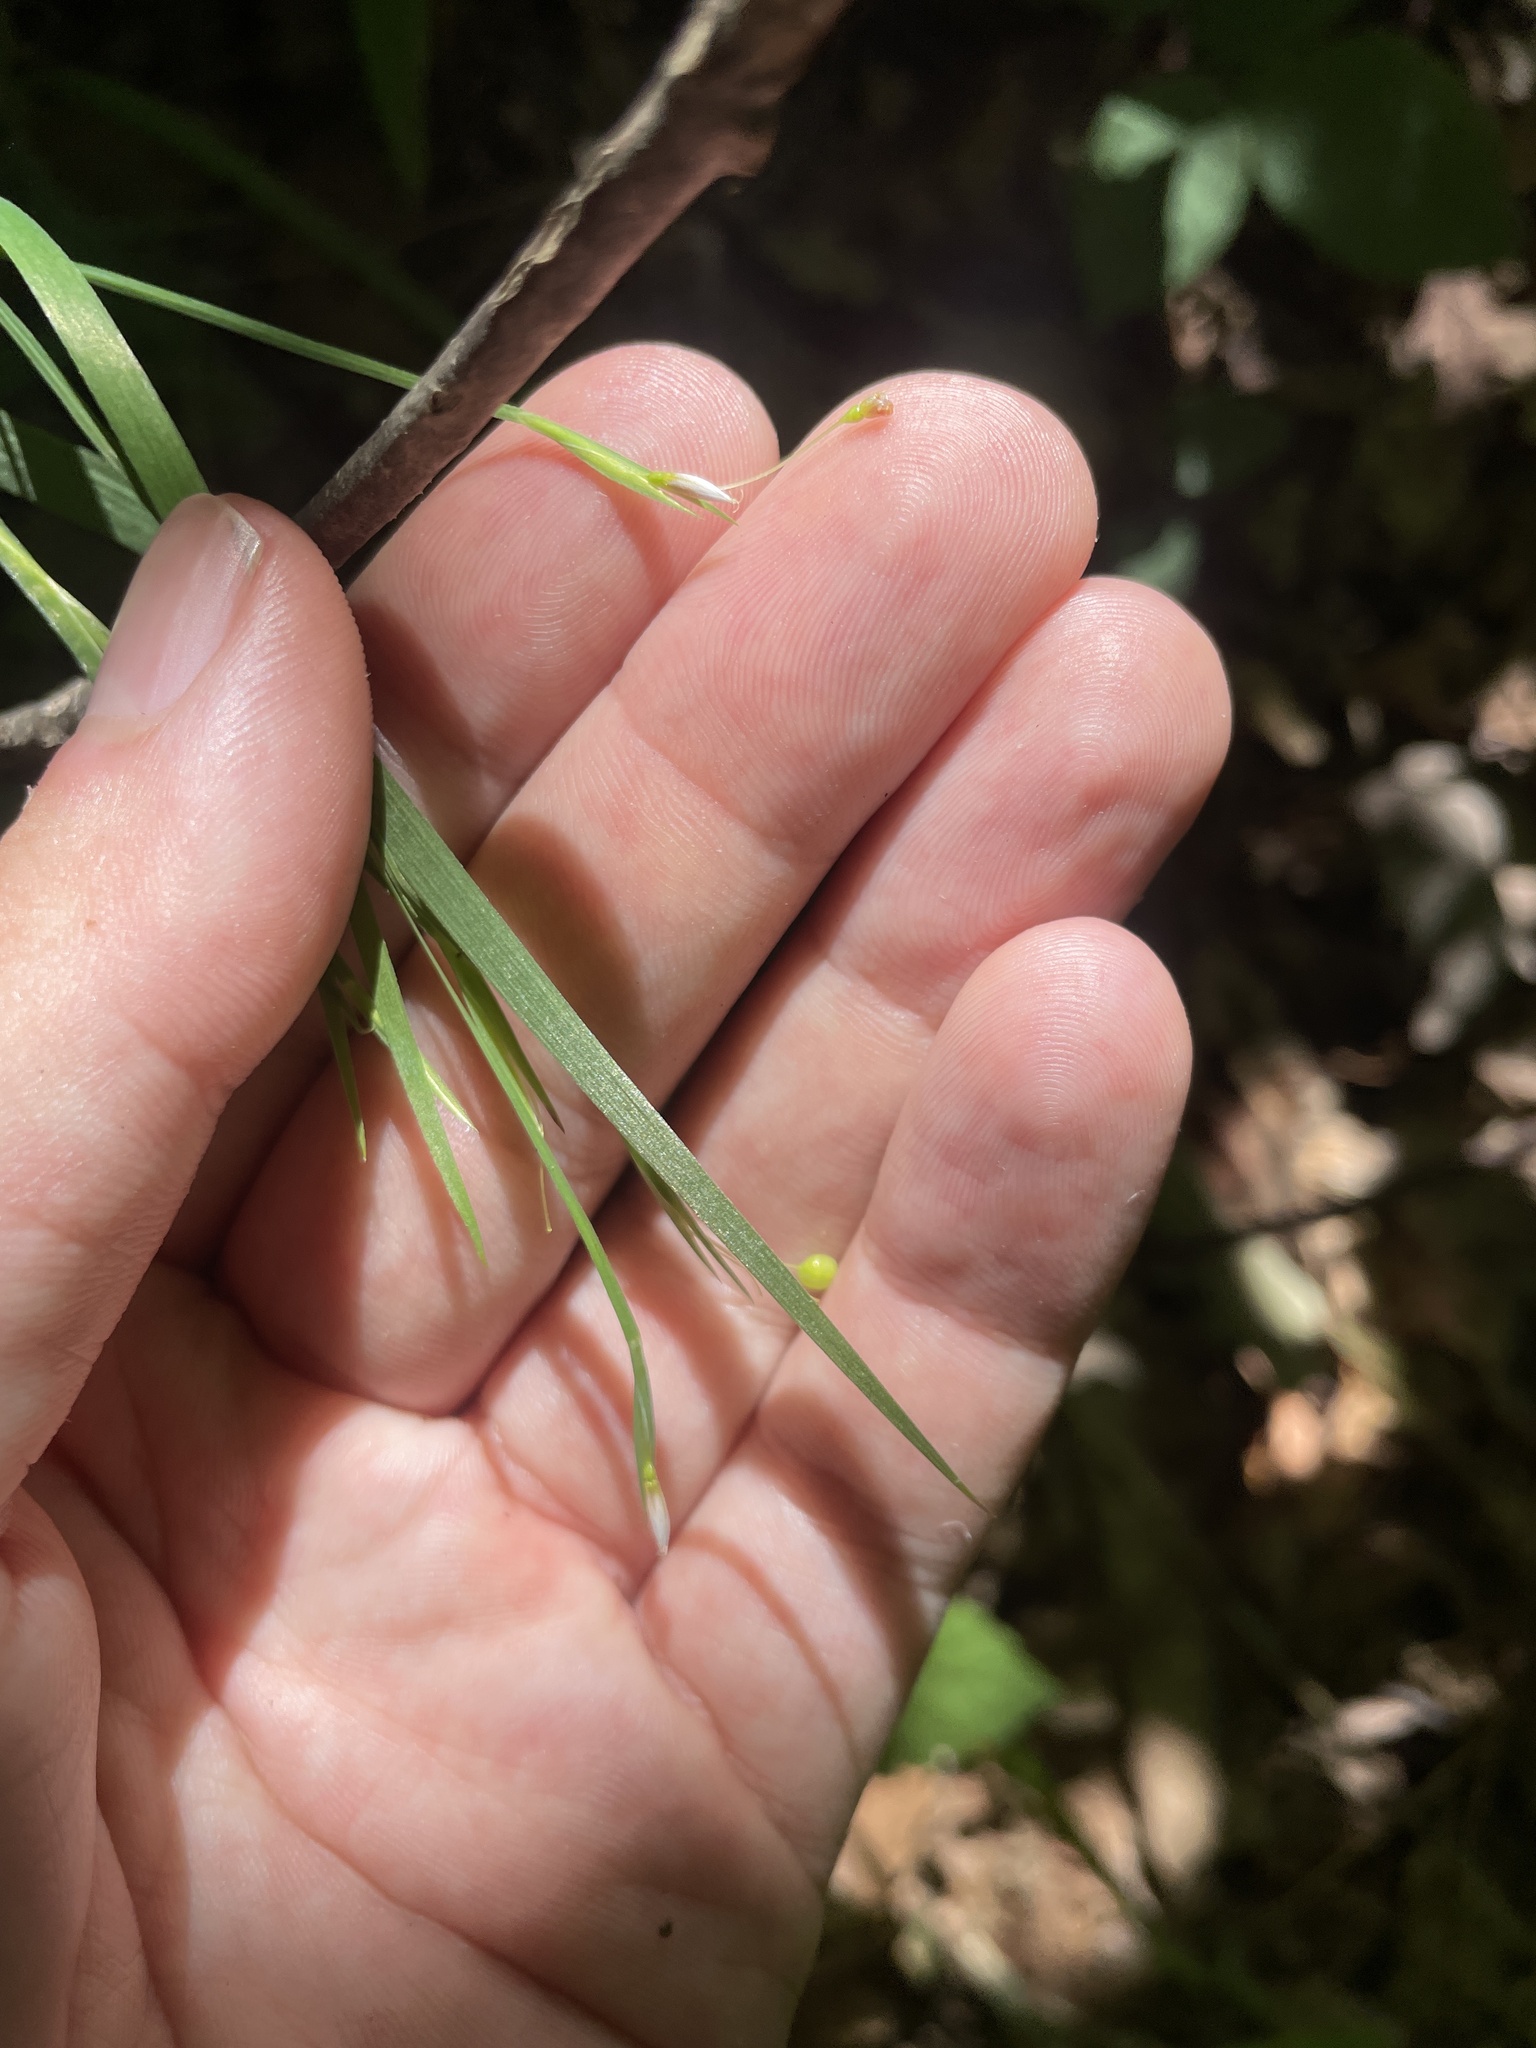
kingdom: Plantae
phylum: Tracheophyta
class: Liliopsida
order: Asparagales
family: Iridaceae
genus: Sisyrinchium
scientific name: Sisyrinchium dichotomum
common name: White irisette
